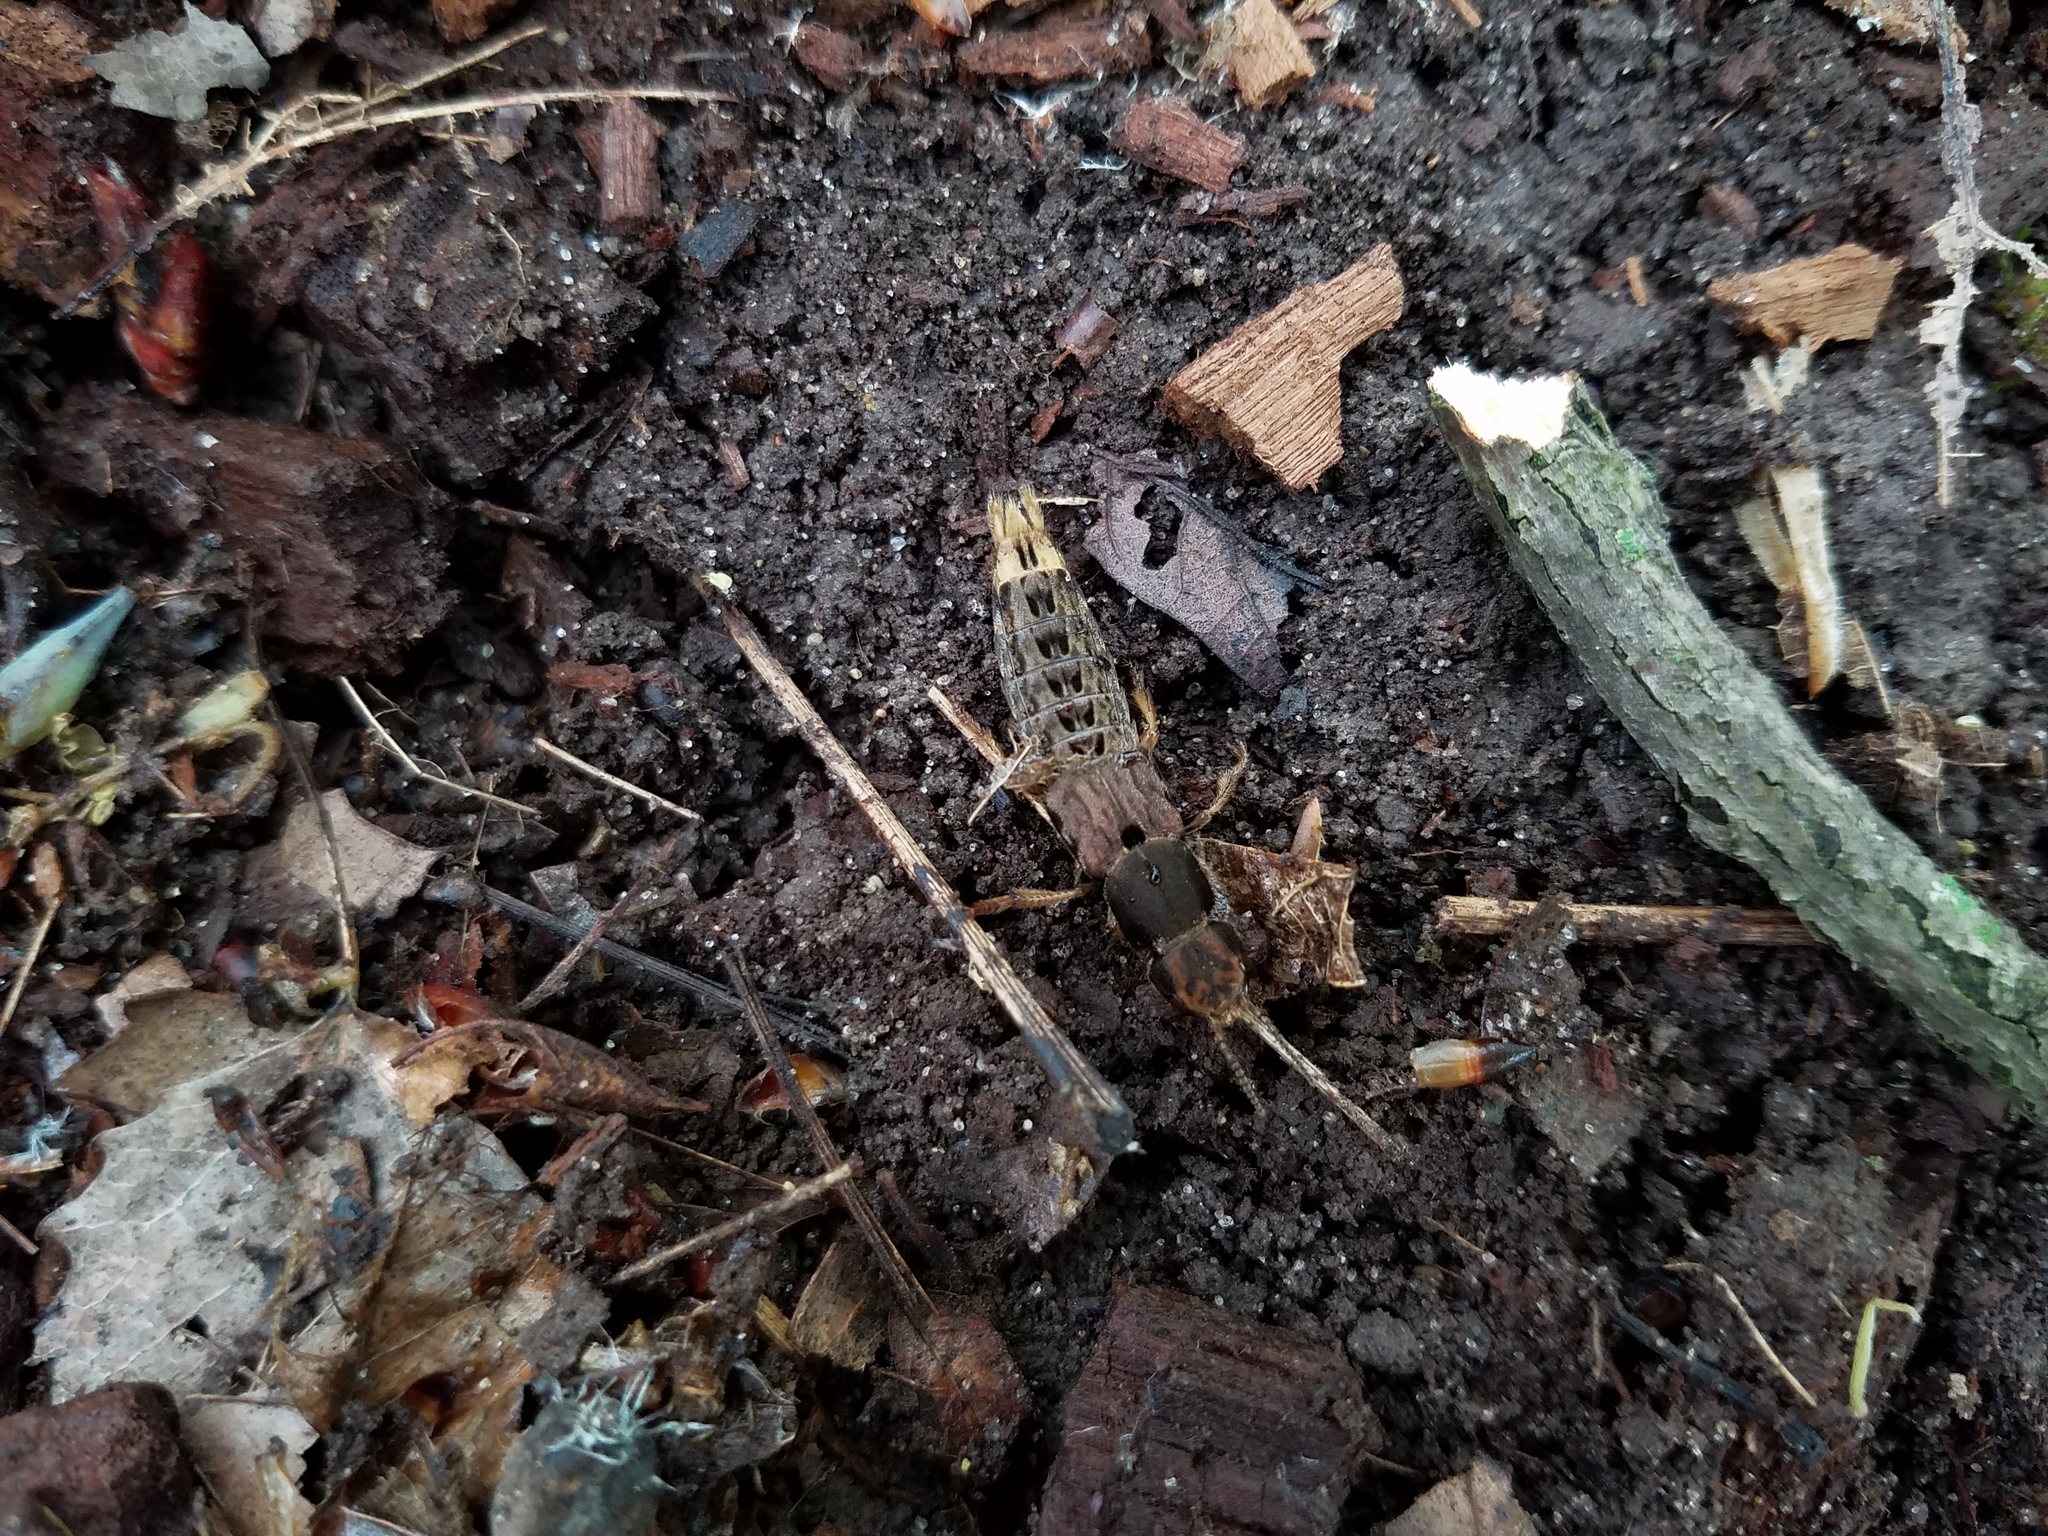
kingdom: Animalia
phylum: Arthropoda
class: Insecta
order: Coleoptera
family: Staphylinidae
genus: Platydracus
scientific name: Platydracus maculosus
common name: Brown rove beetle
